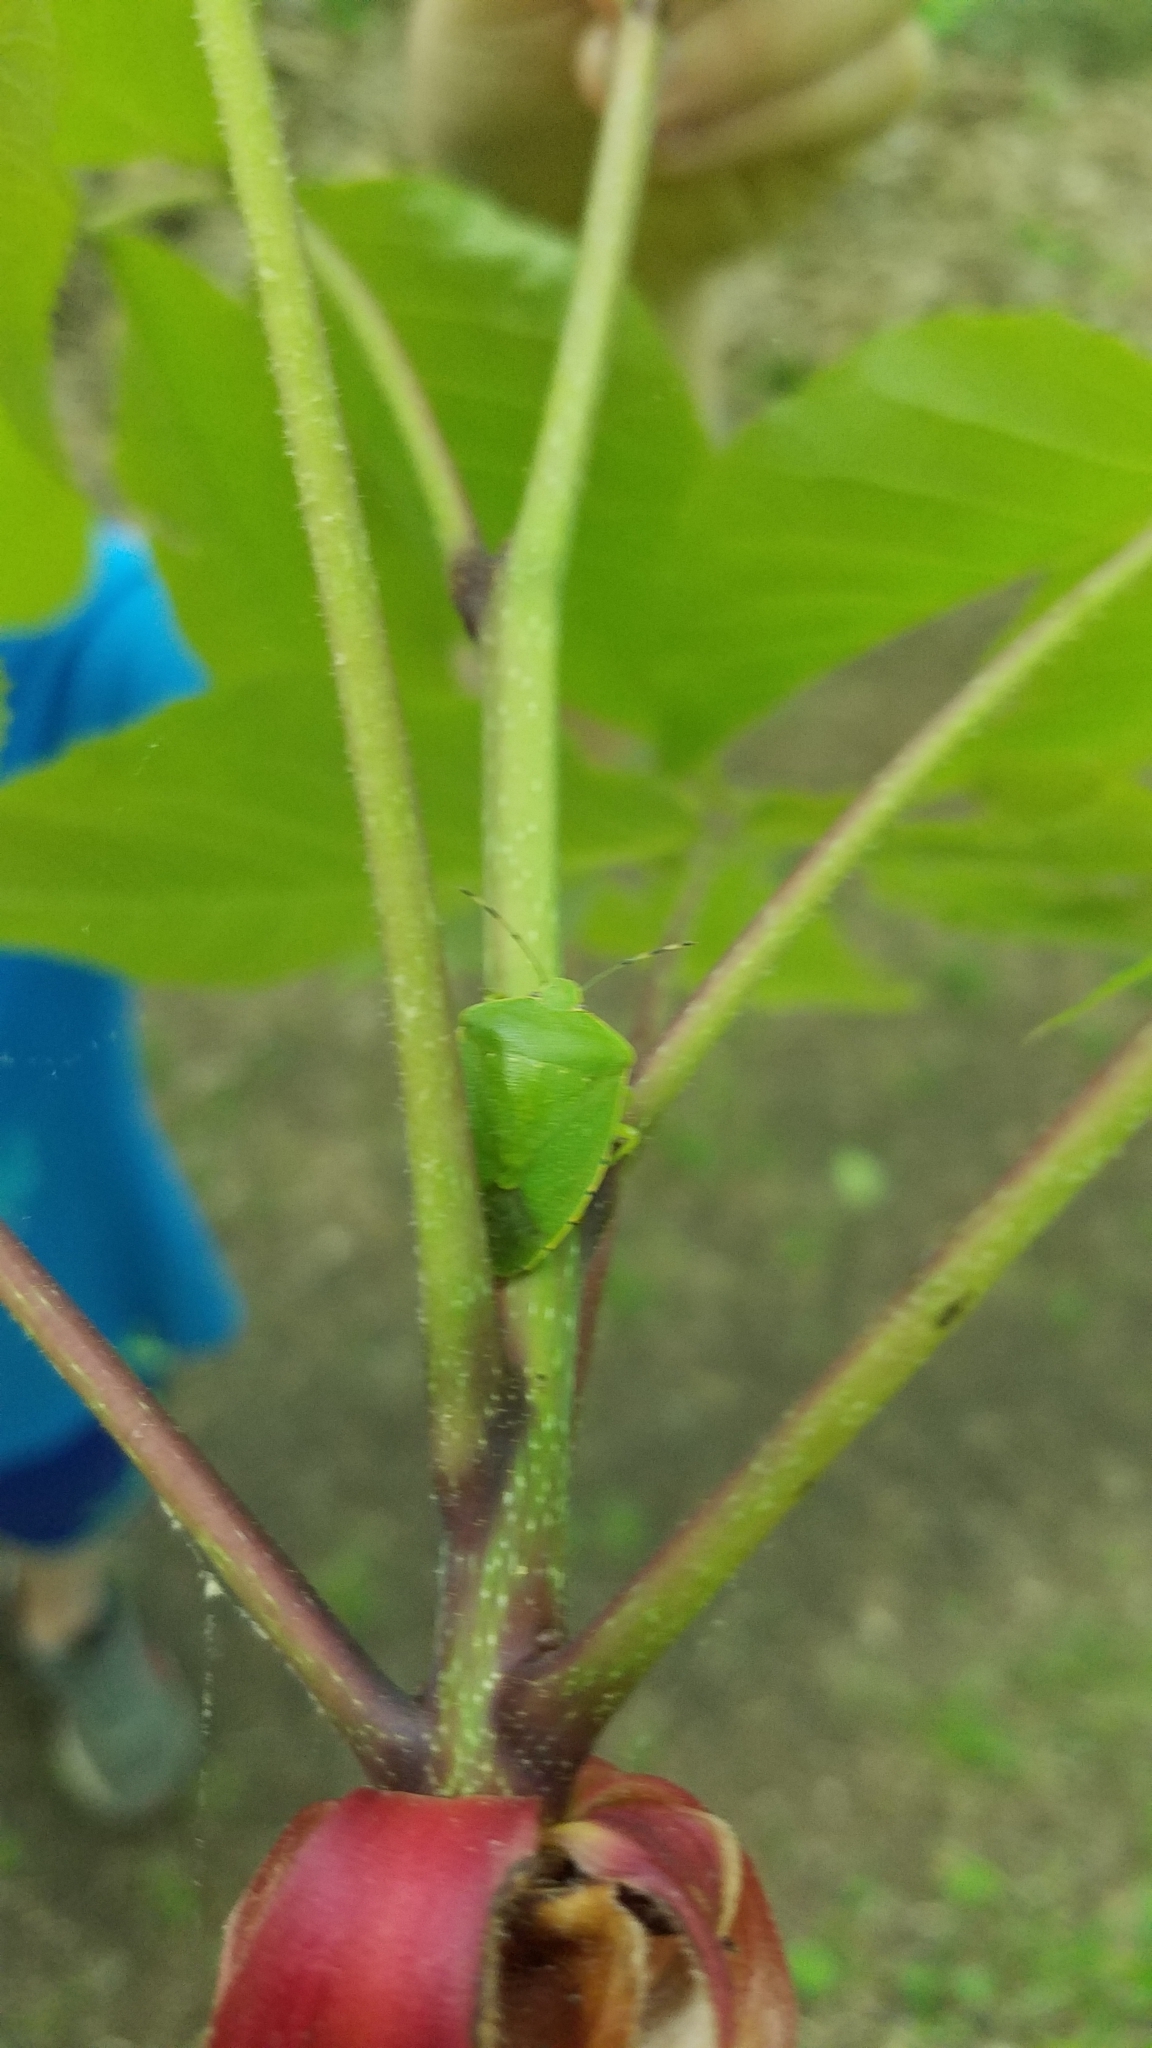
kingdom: Animalia
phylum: Arthropoda
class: Insecta
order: Hemiptera
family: Pentatomidae
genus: Chinavia
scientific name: Chinavia hilaris
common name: Green stink bug
